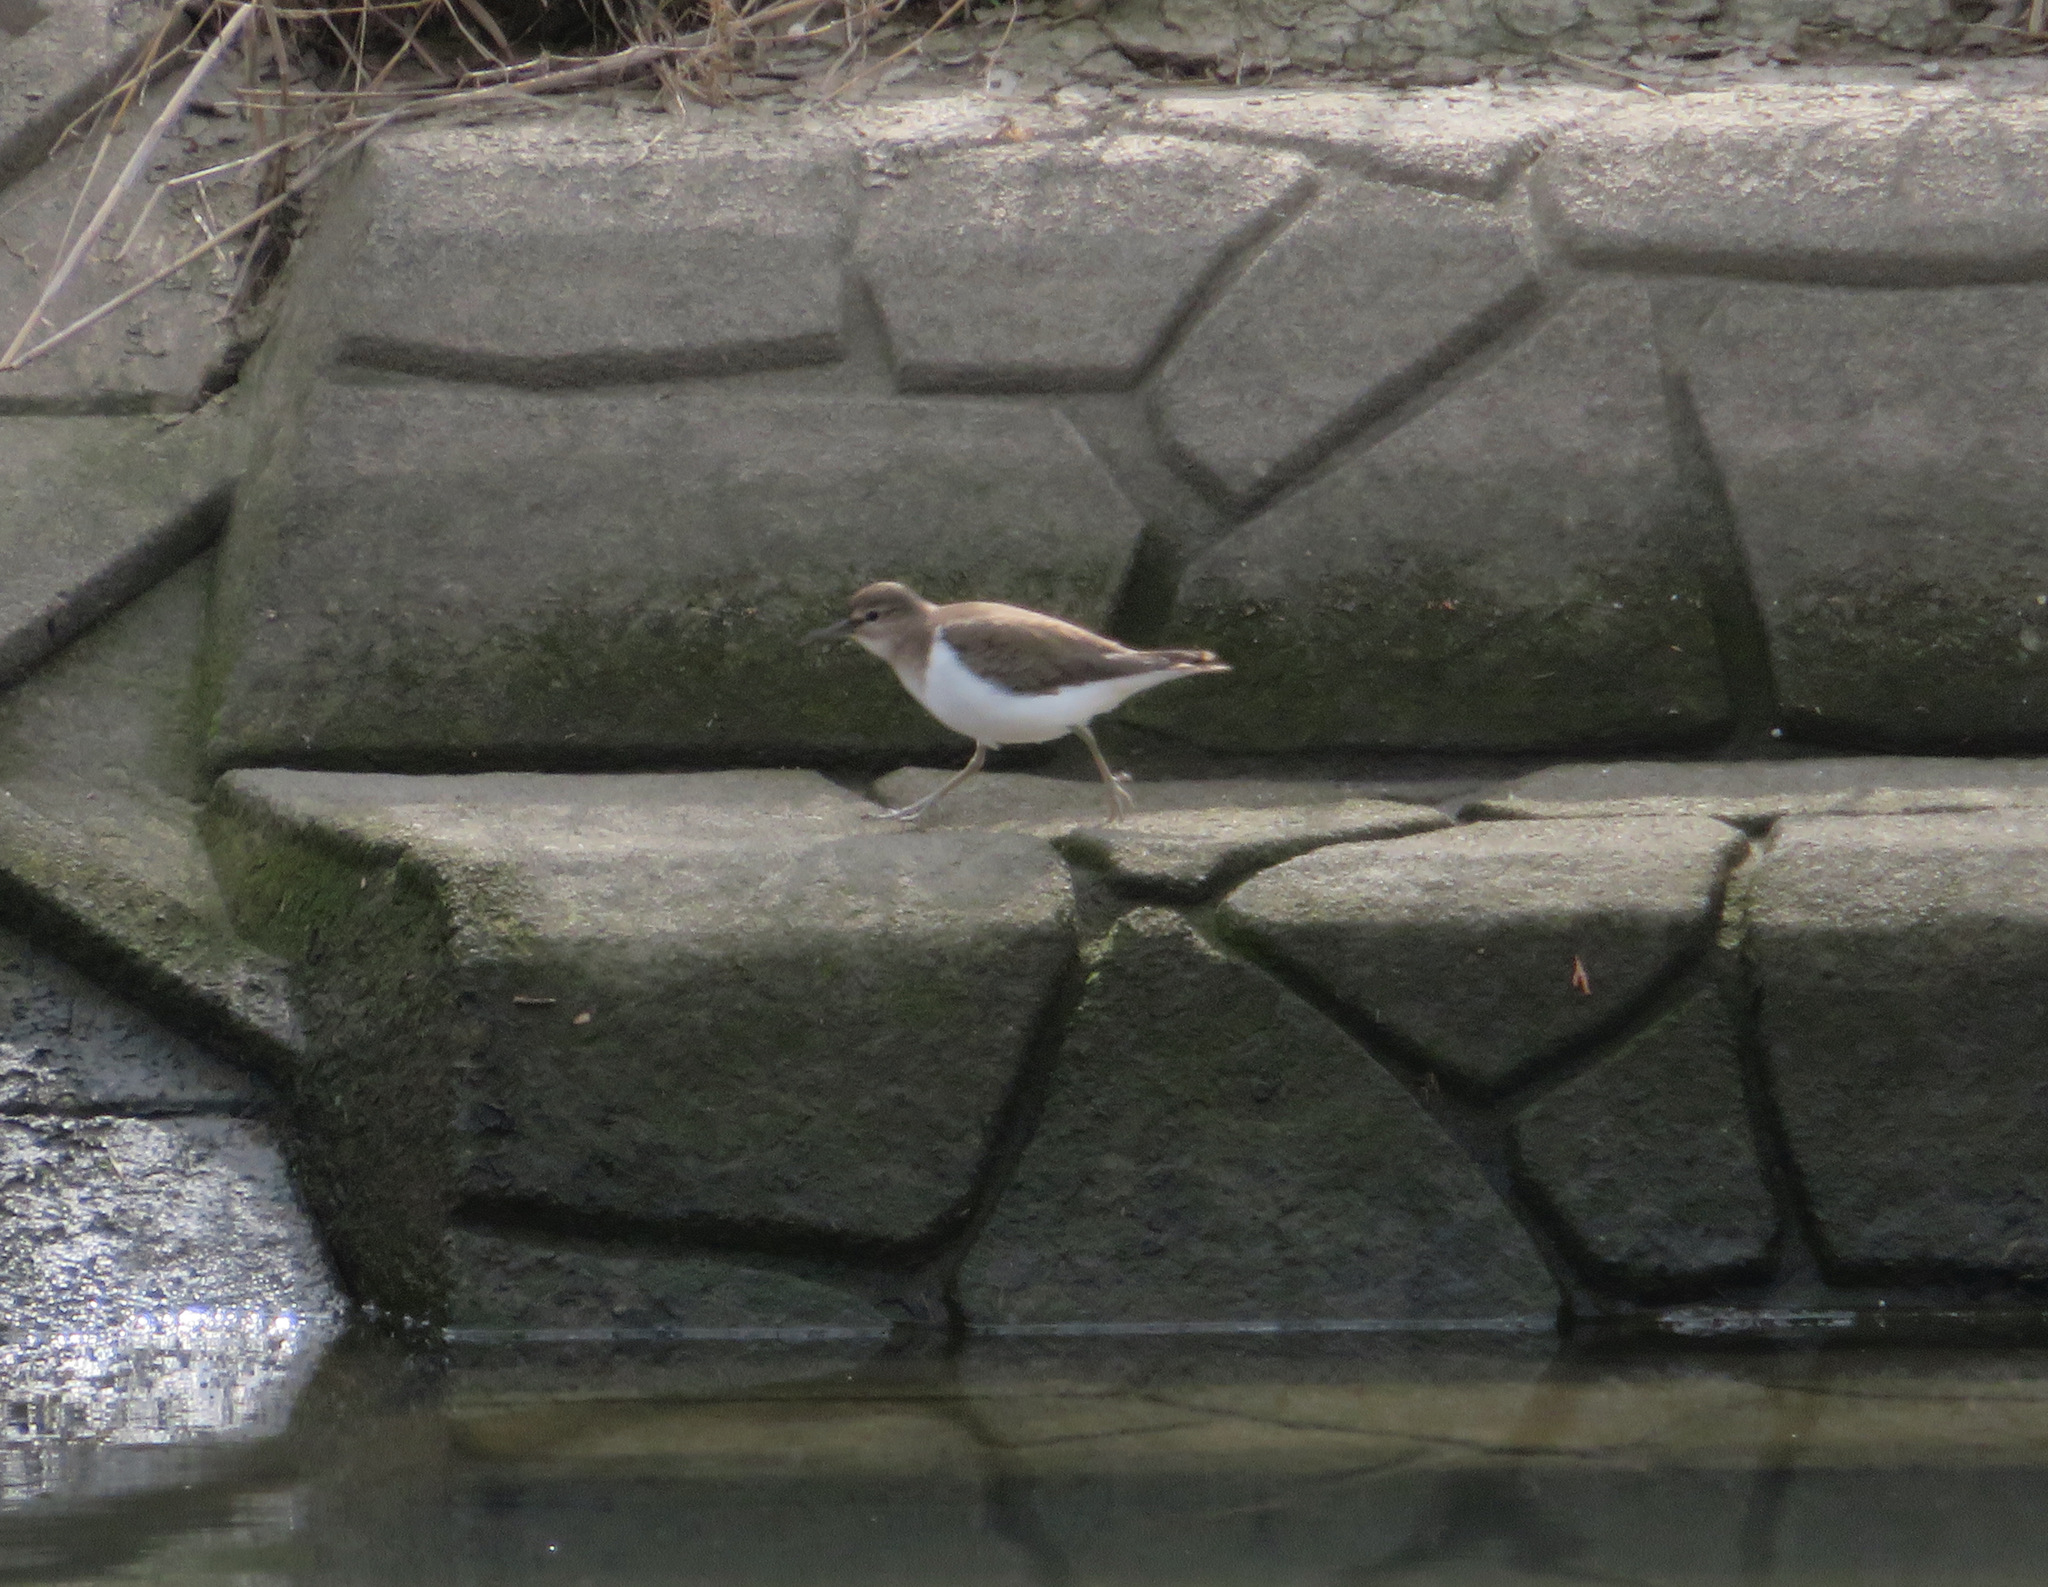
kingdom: Animalia
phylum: Chordata
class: Aves
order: Charadriiformes
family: Scolopacidae
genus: Actitis
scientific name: Actitis hypoleucos
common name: Common sandpiper
